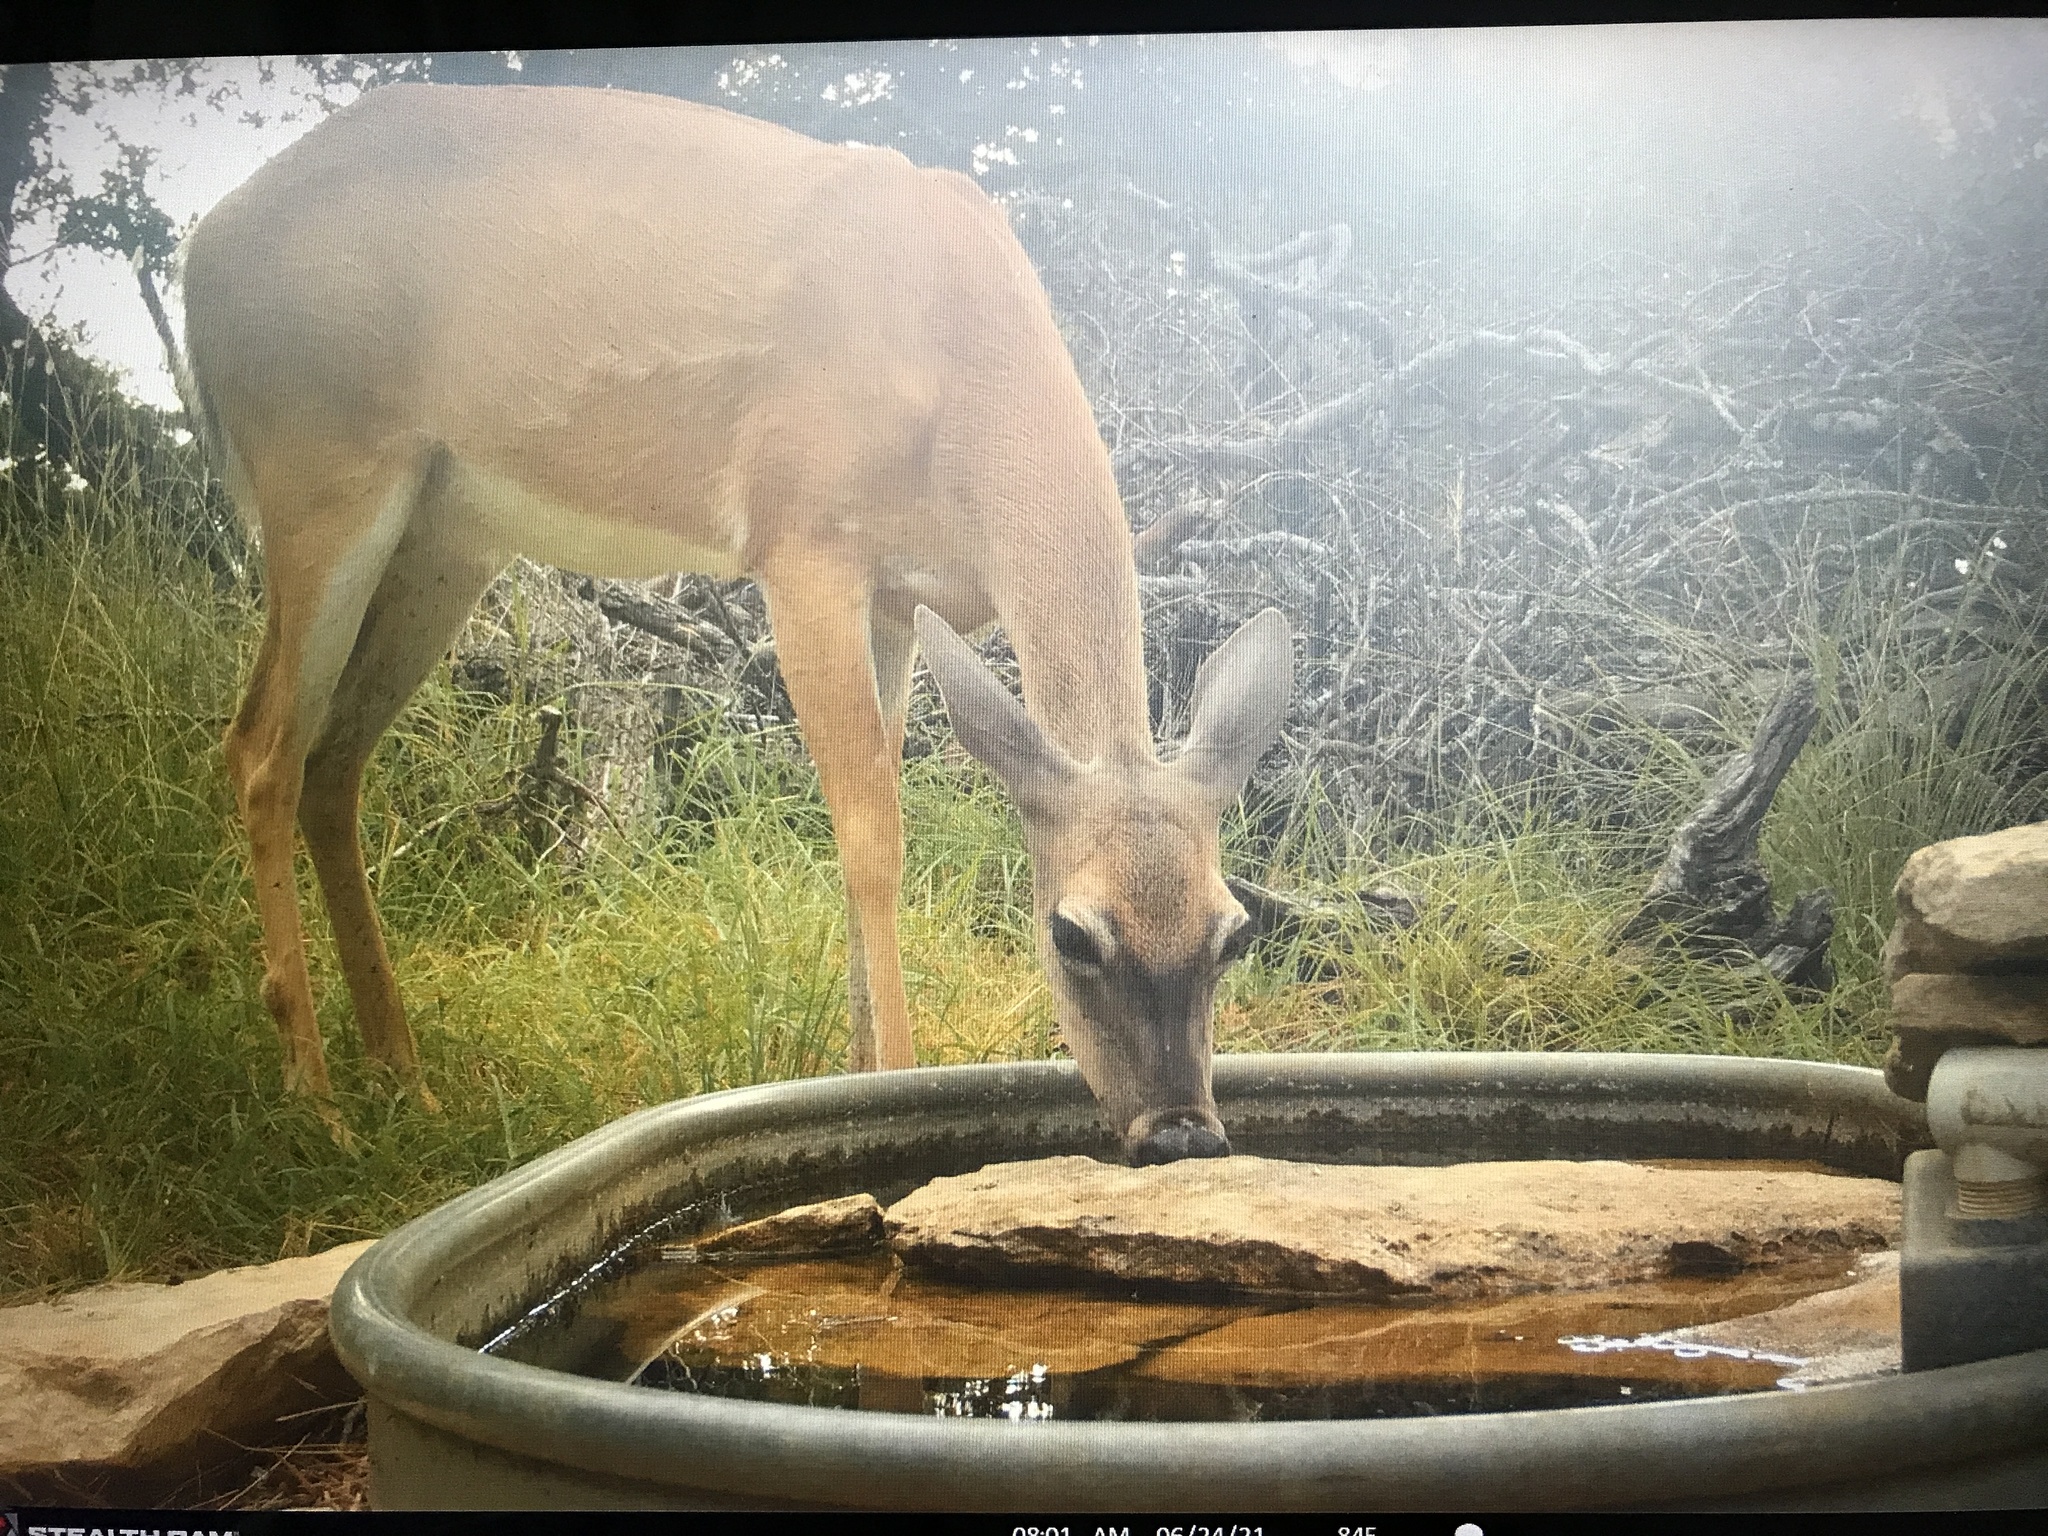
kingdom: Animalia
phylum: Chordata
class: Mammalia
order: Artiodactyla
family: Cervidae
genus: Odocoileus
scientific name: Odocoileus virginianus
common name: White-tailed deer
